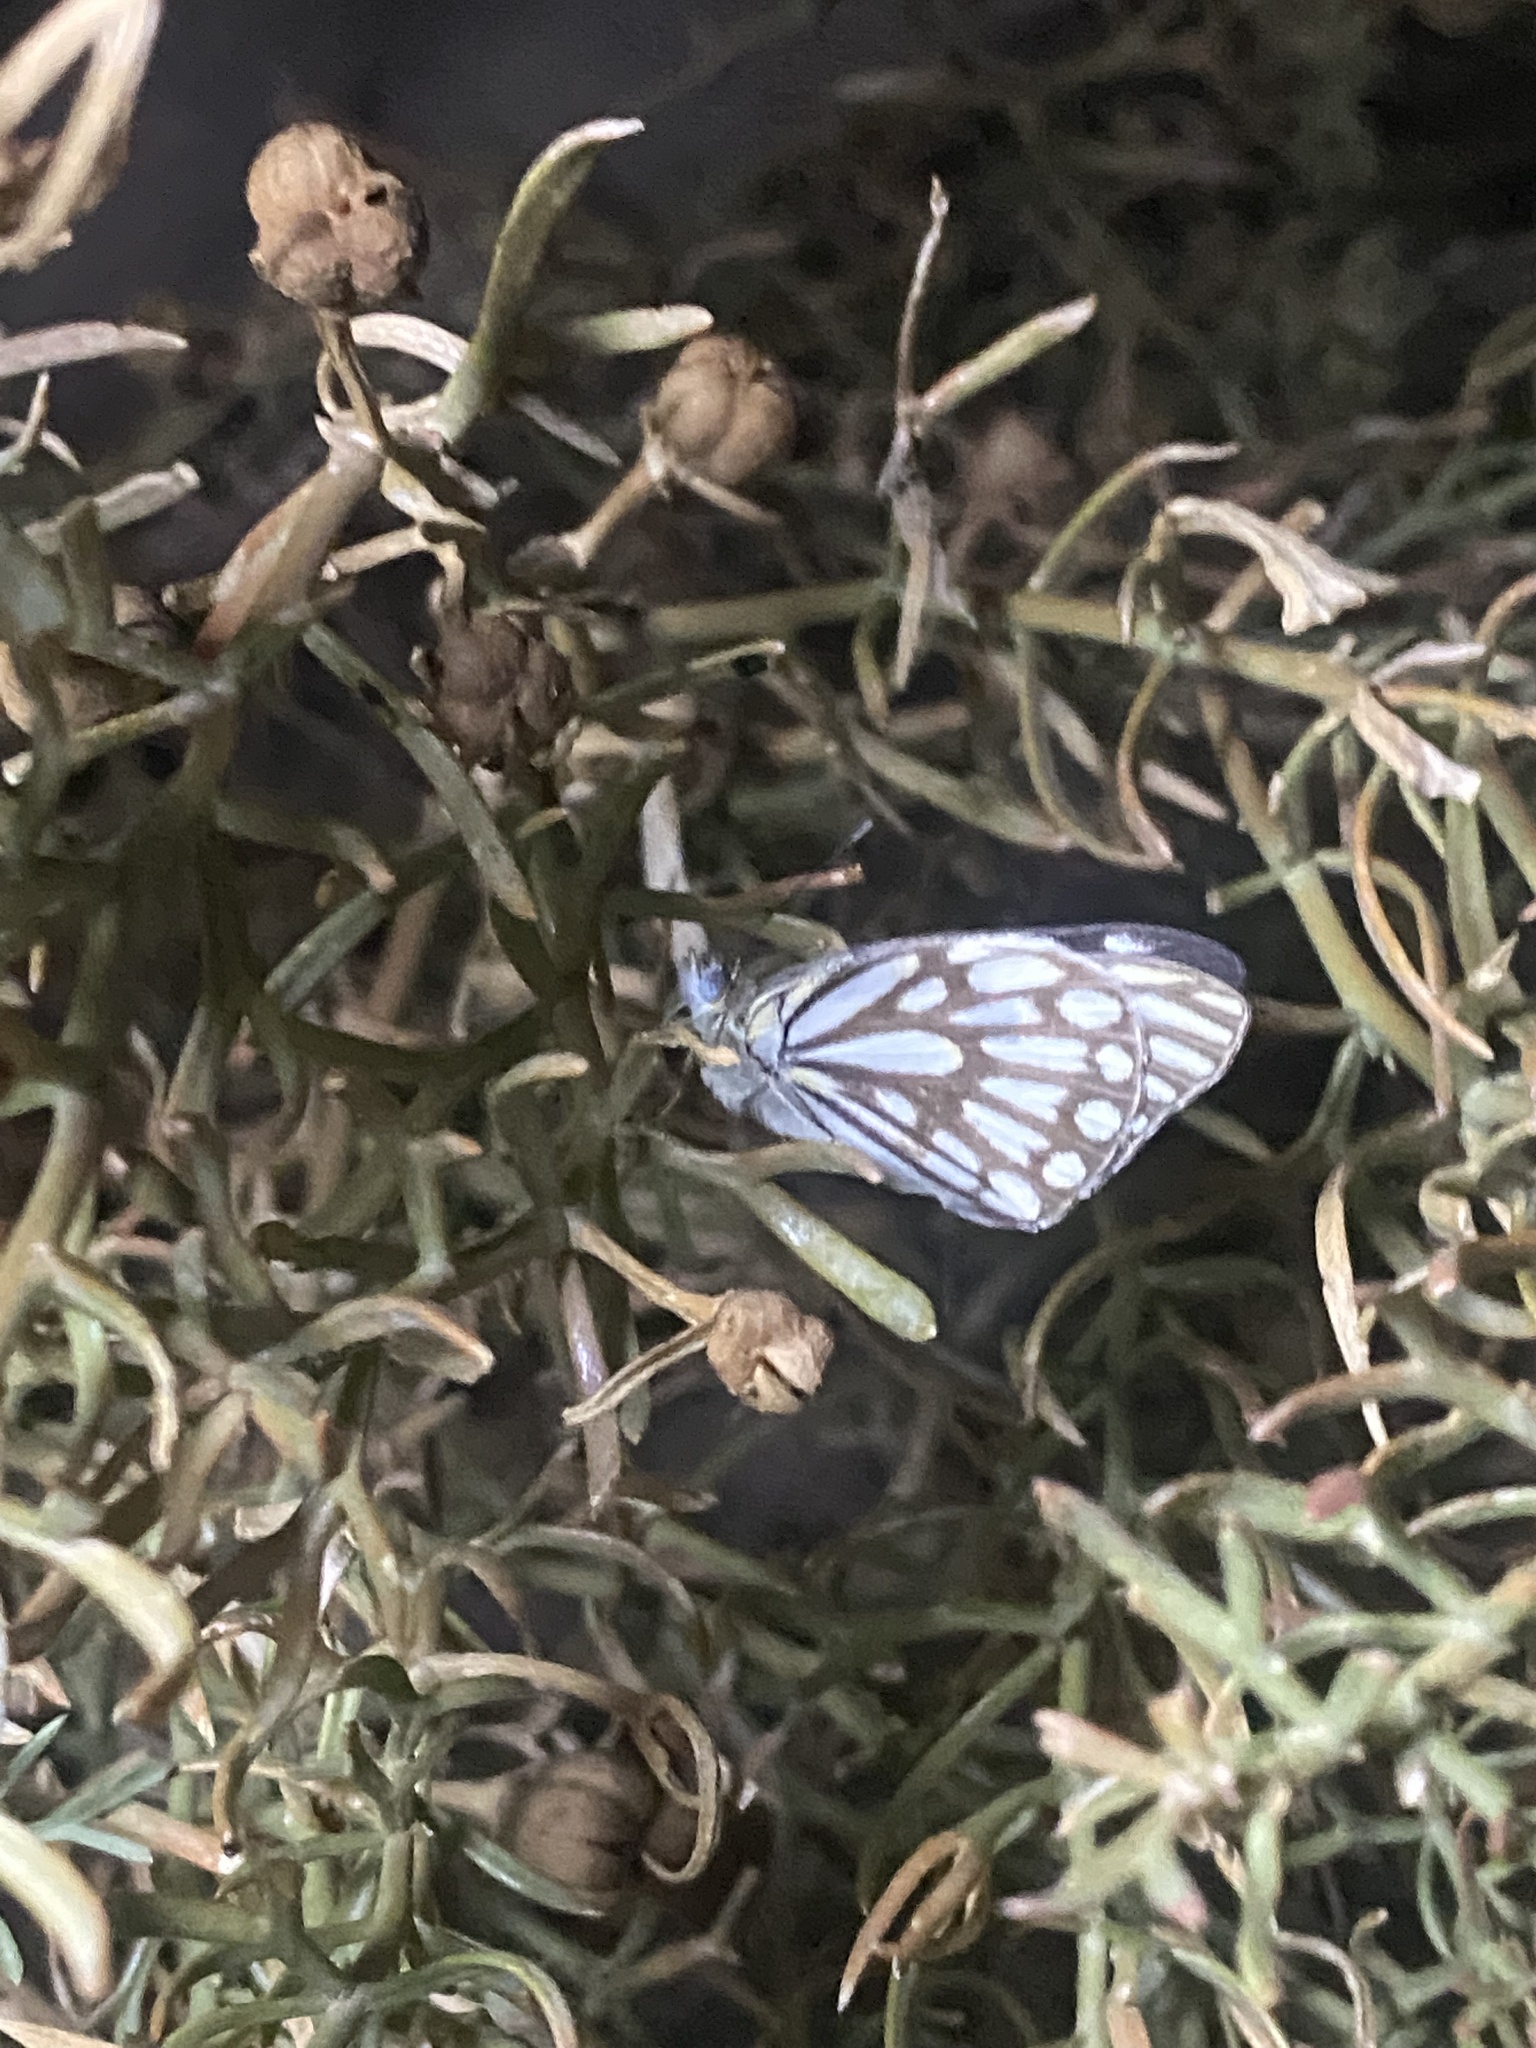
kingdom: Animalia
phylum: Arthropoda
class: Insecta
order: Lepidoptera
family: Pieridae
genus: Belenois
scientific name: Belenois aurota
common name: Brown-veined white
